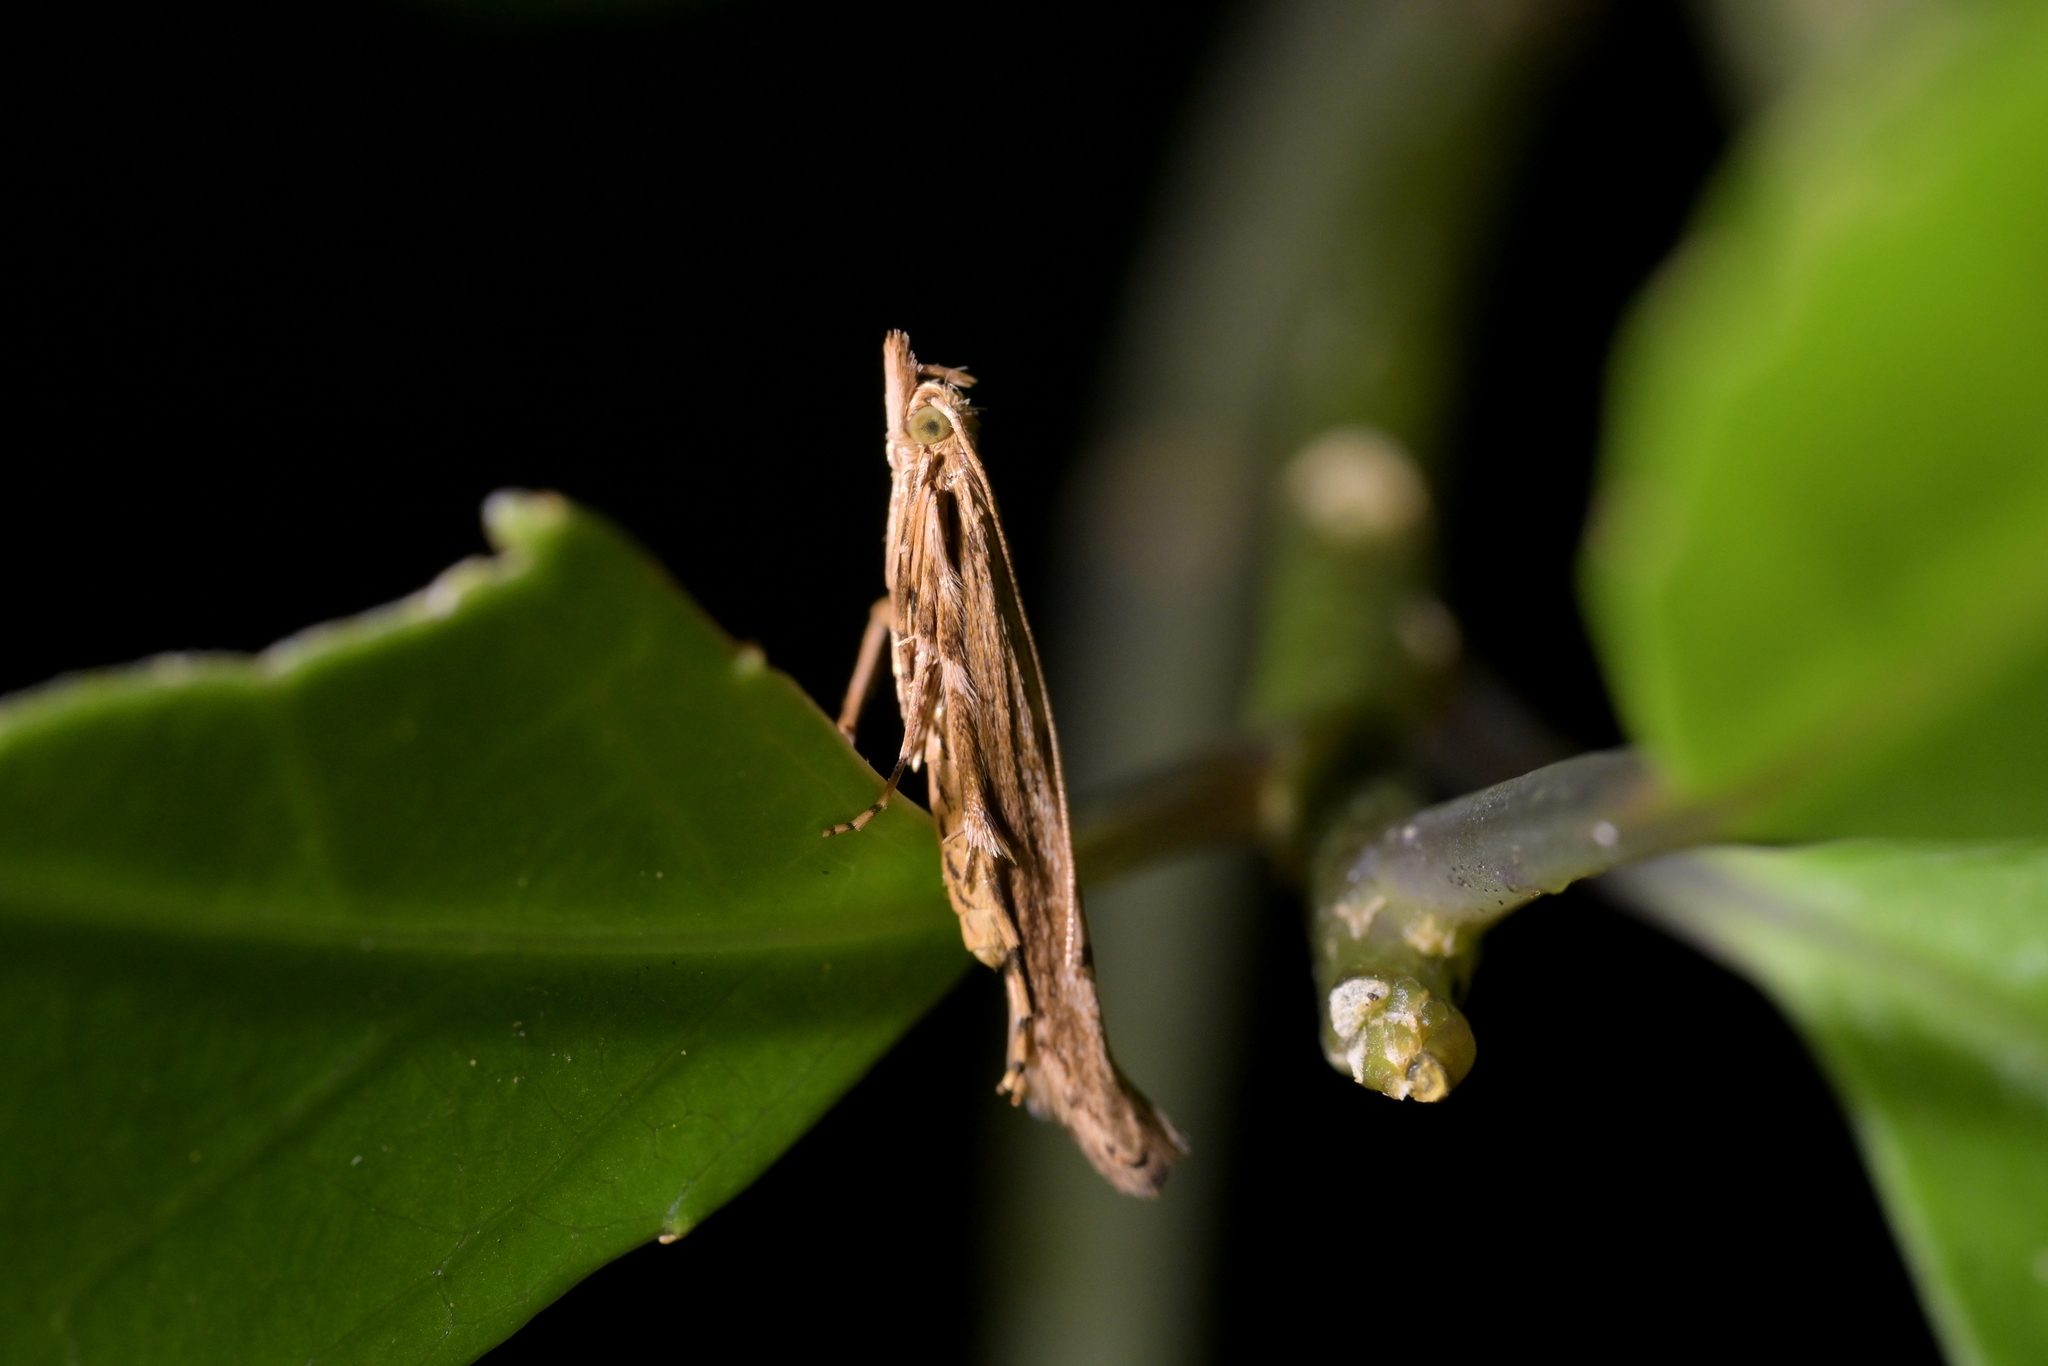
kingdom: Animalia
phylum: Arthropoda
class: Insecta
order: Lepidoptera
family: Batrachedridae
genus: Batrachedra
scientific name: Batrachedra agaura
